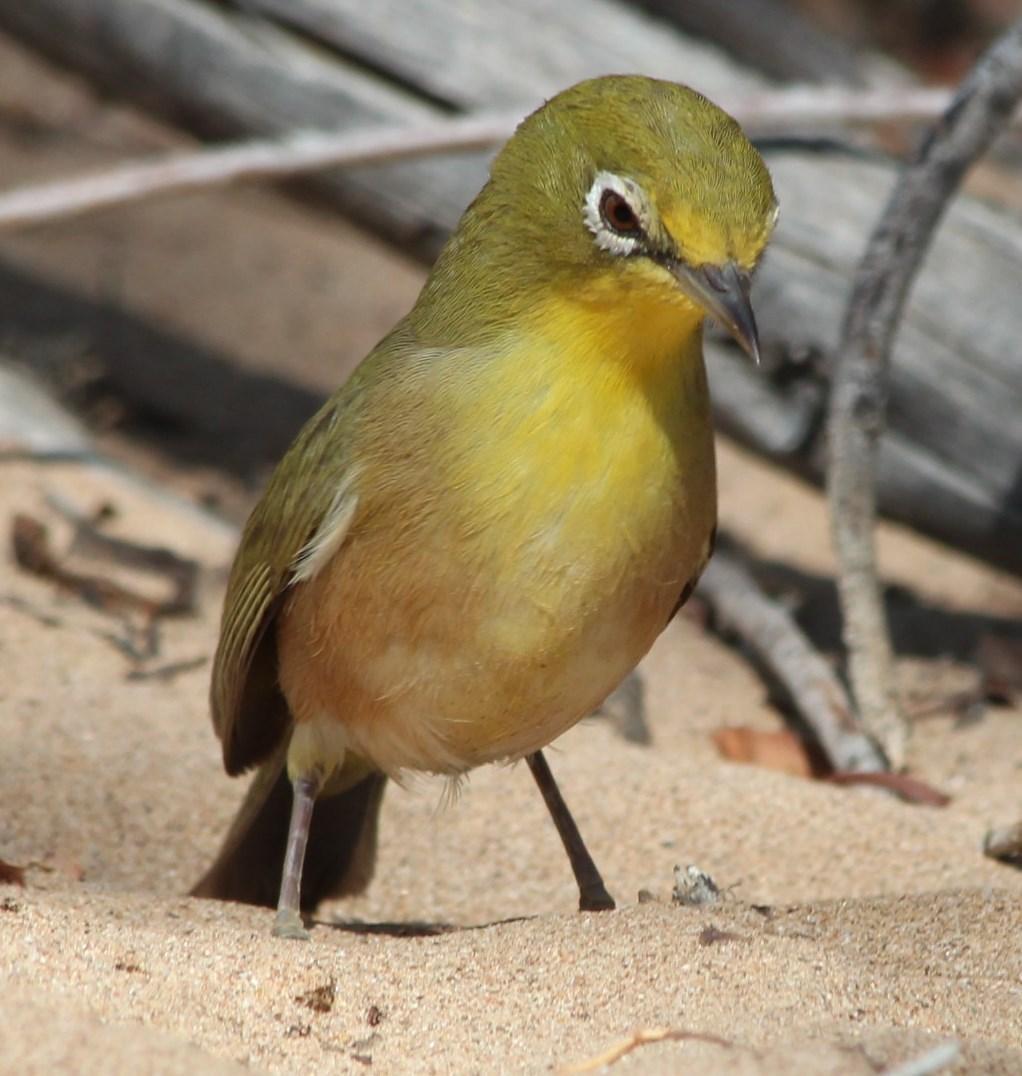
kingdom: Animalia
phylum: Chordata
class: Aves
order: Passeriformes
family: Zosteropidae
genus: Zosterops
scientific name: Zosterops pallidus
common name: Orange river white-eye
